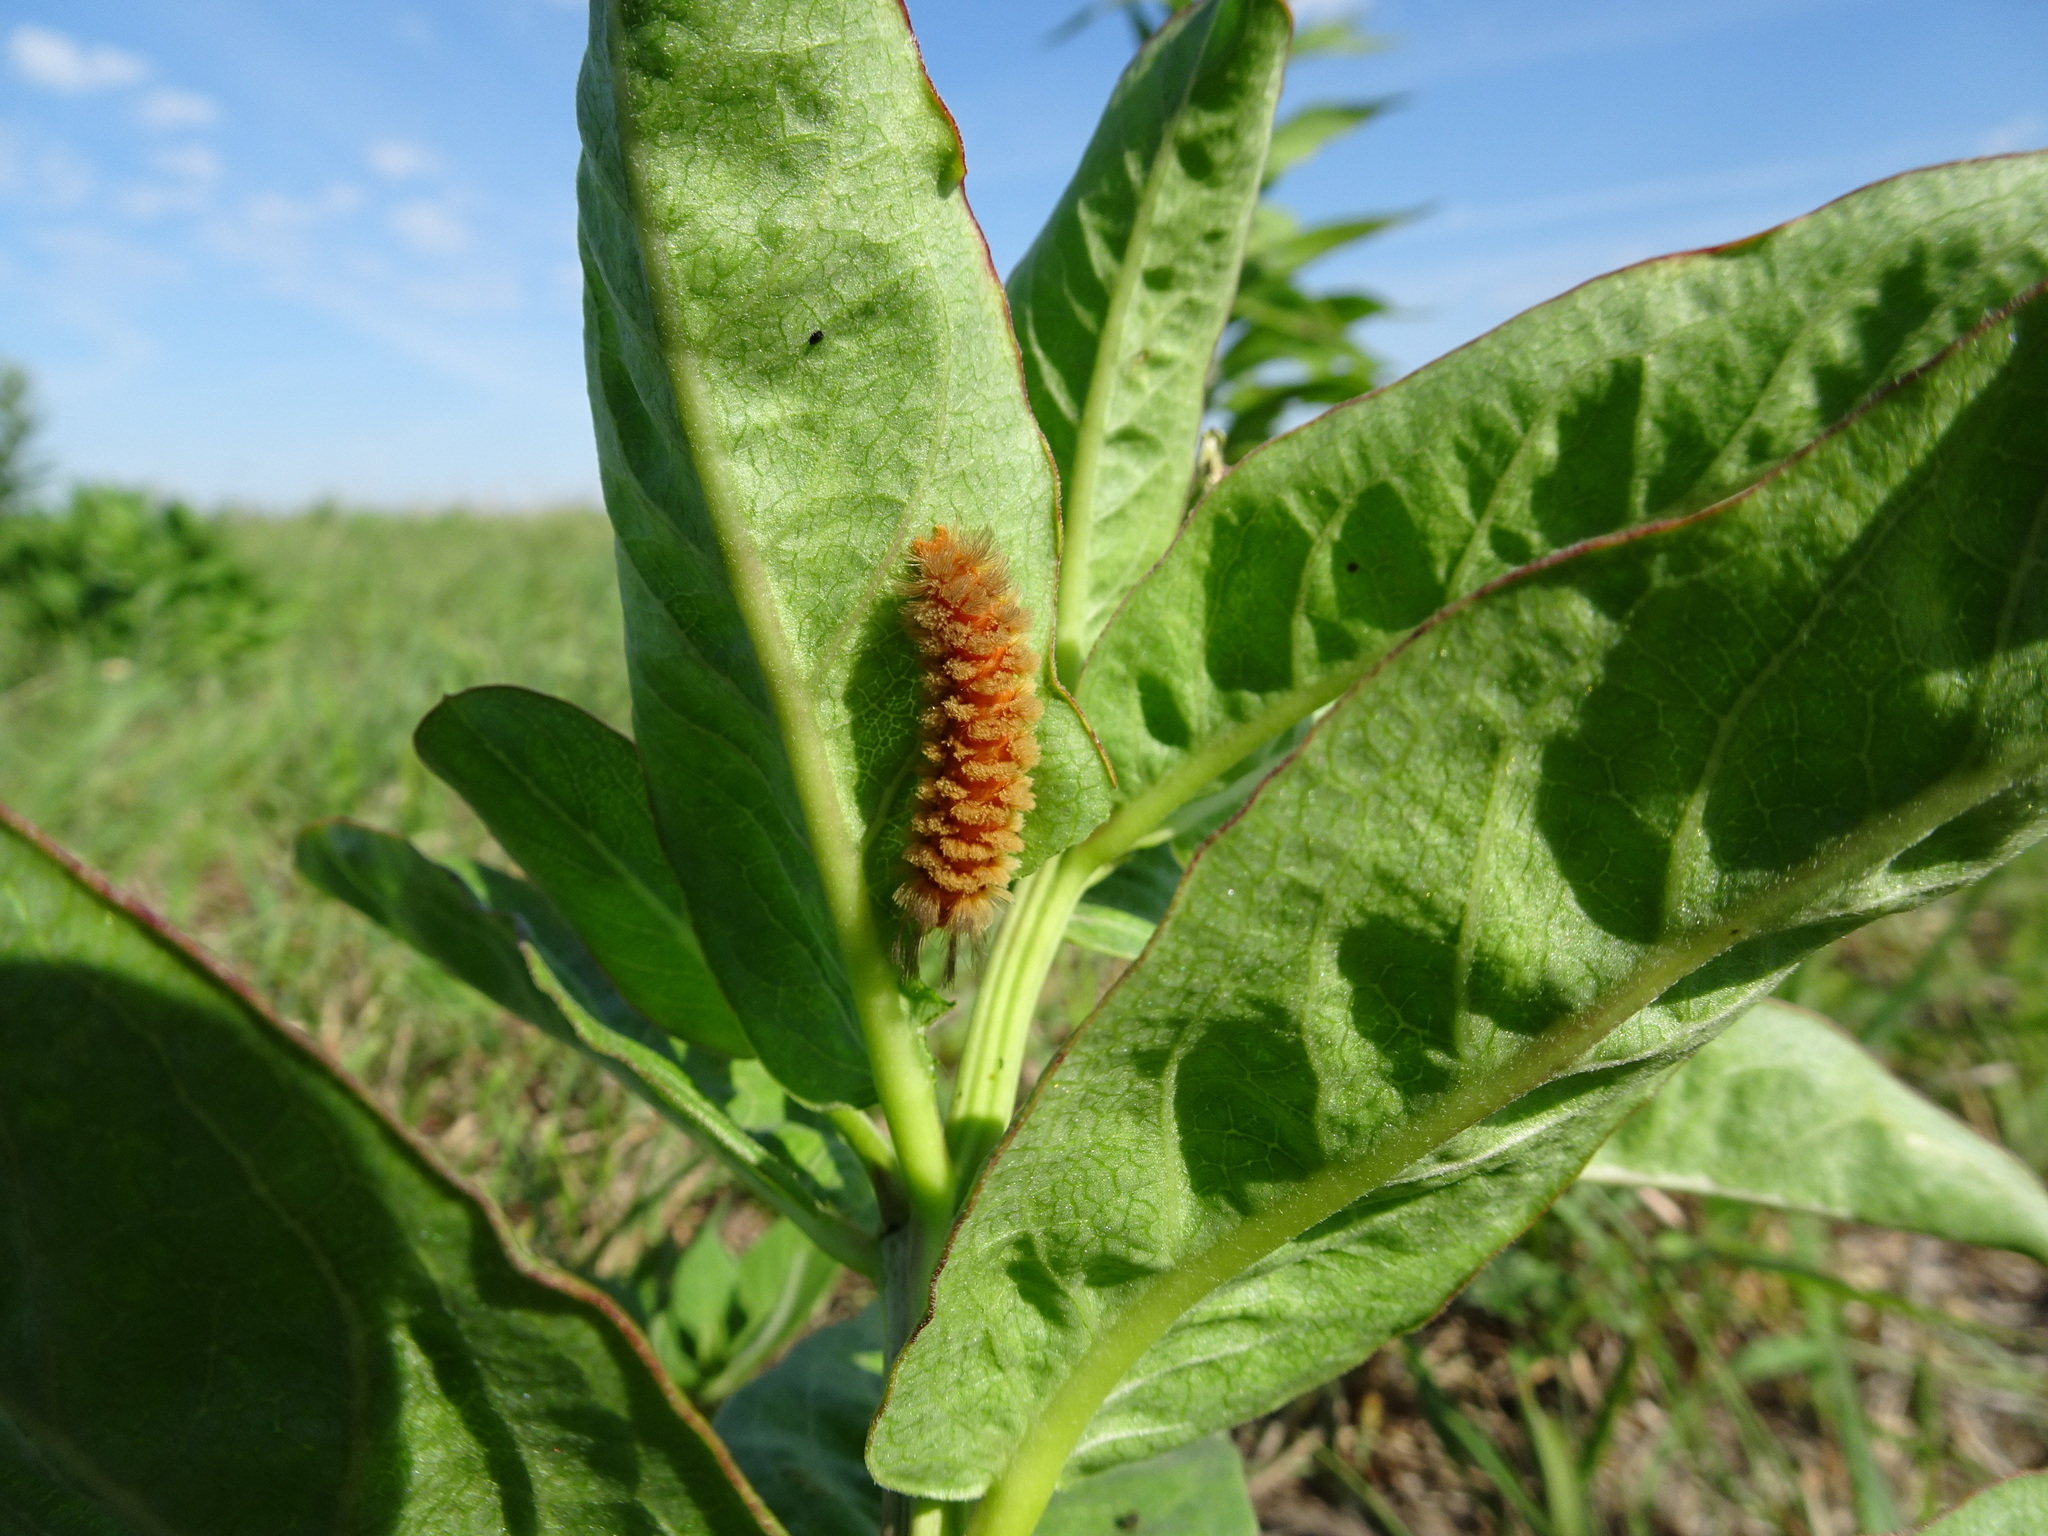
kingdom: Animalia
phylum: Arthropoda
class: Insecta
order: Lepidoptera
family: Erebidae
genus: Cycnia
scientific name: Cycnia collaris
